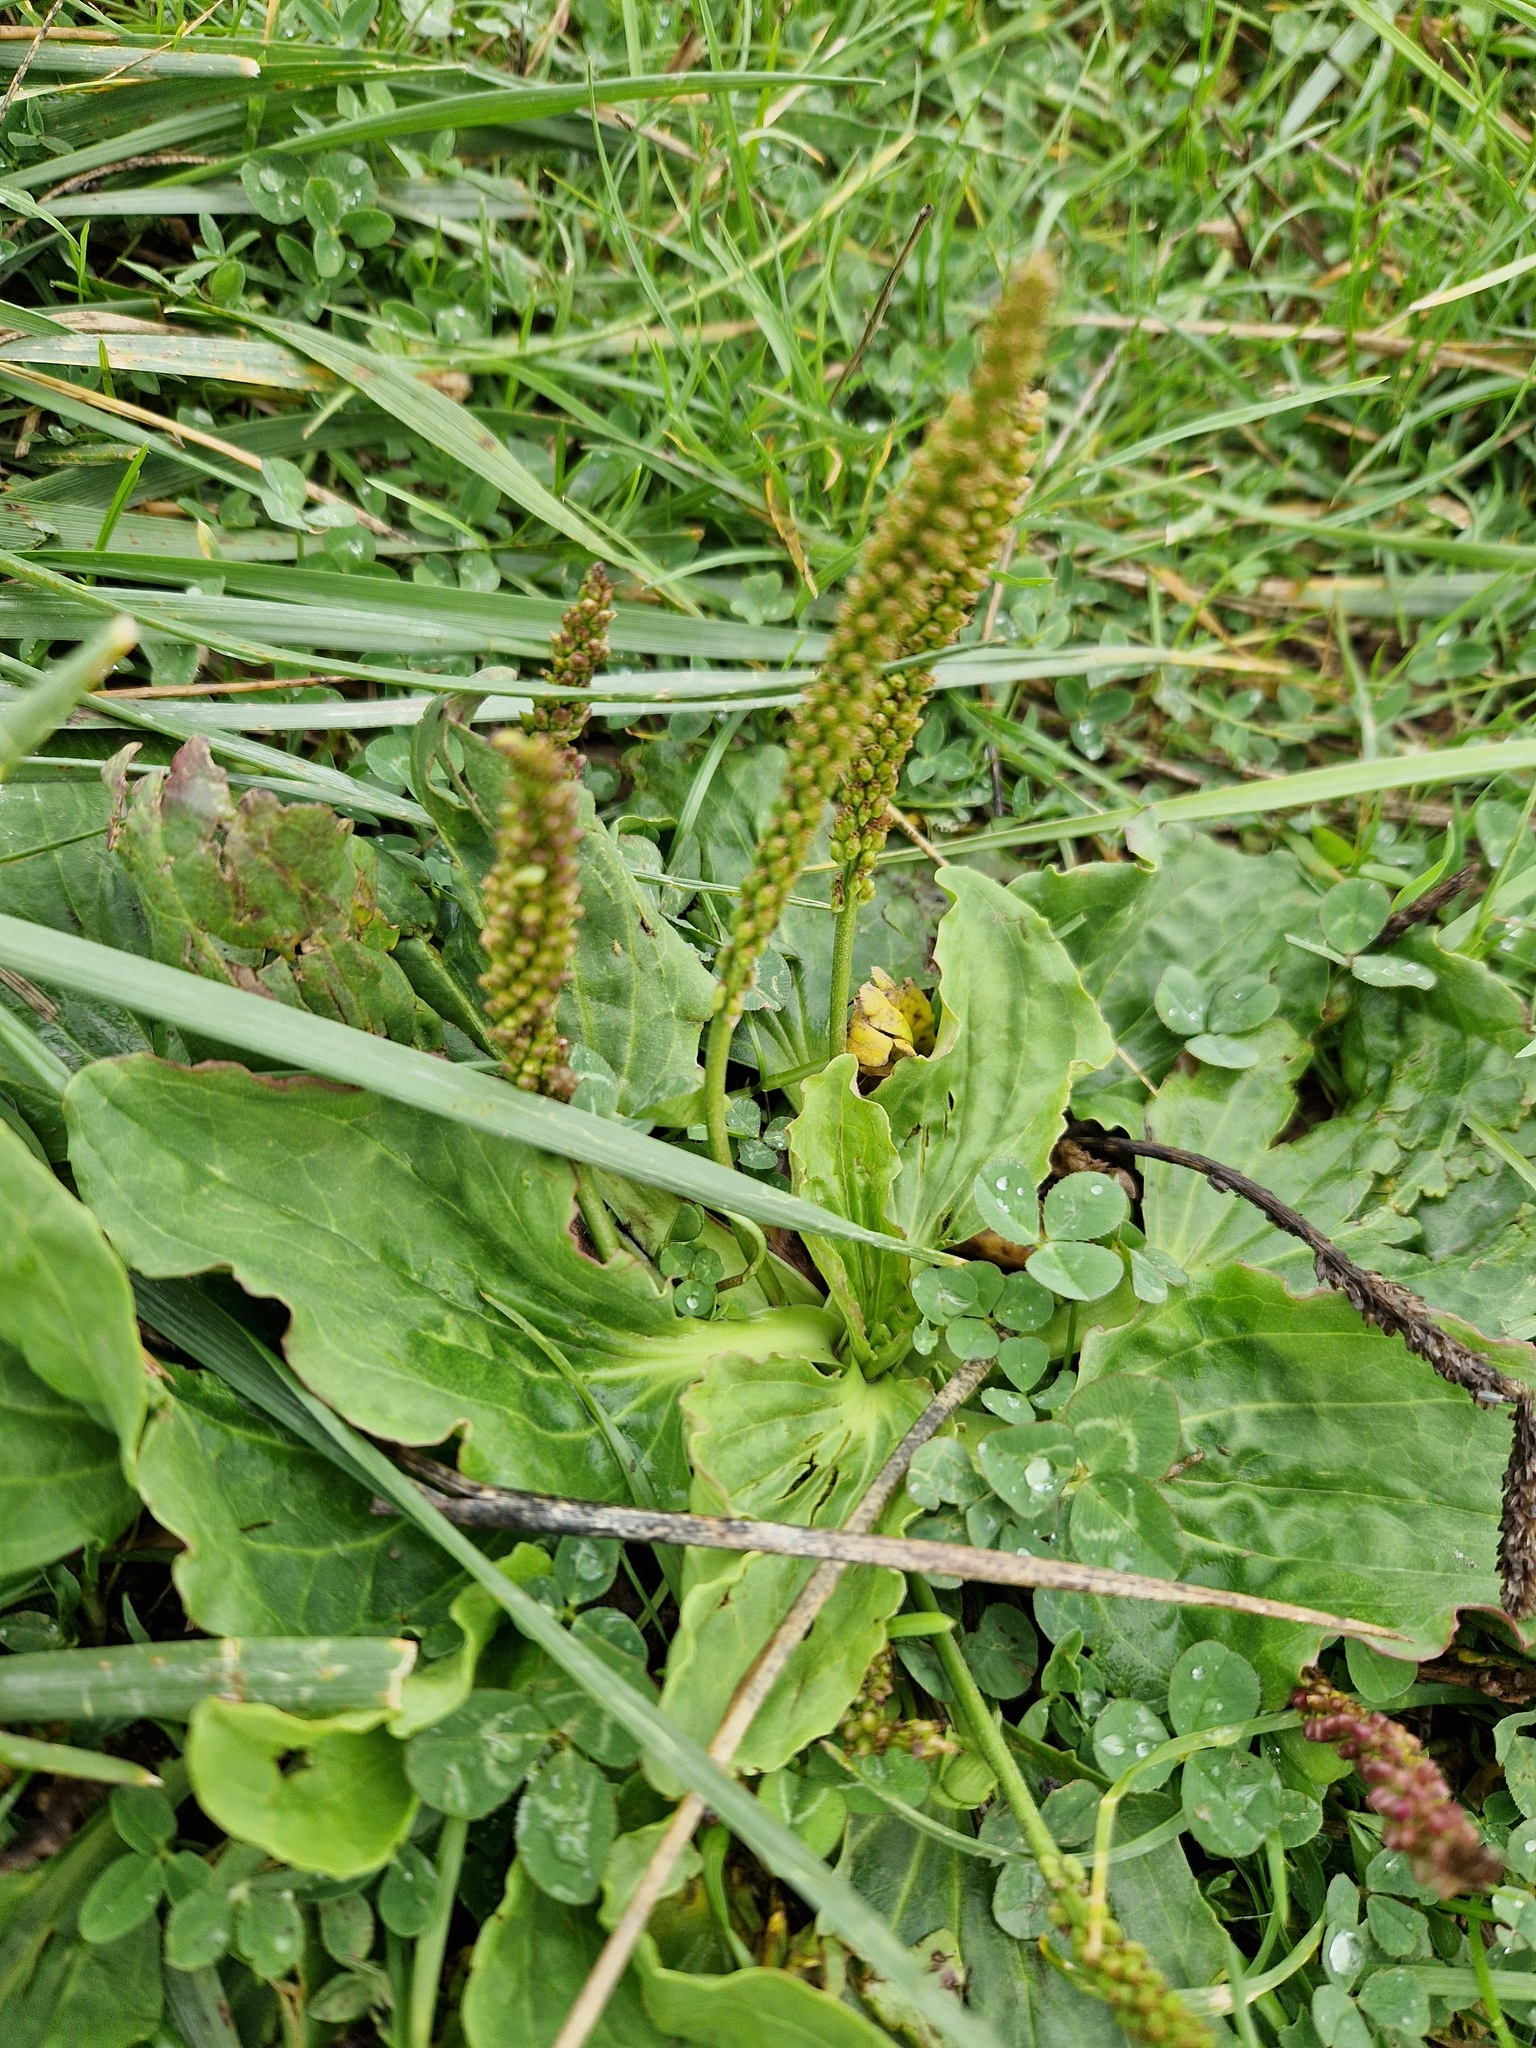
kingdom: Plantae
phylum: Tracheophyta
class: Magnoliopsida
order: Lamiales
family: Plantaginaceae
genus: Plantago
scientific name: Plantago major
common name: Common plantain
